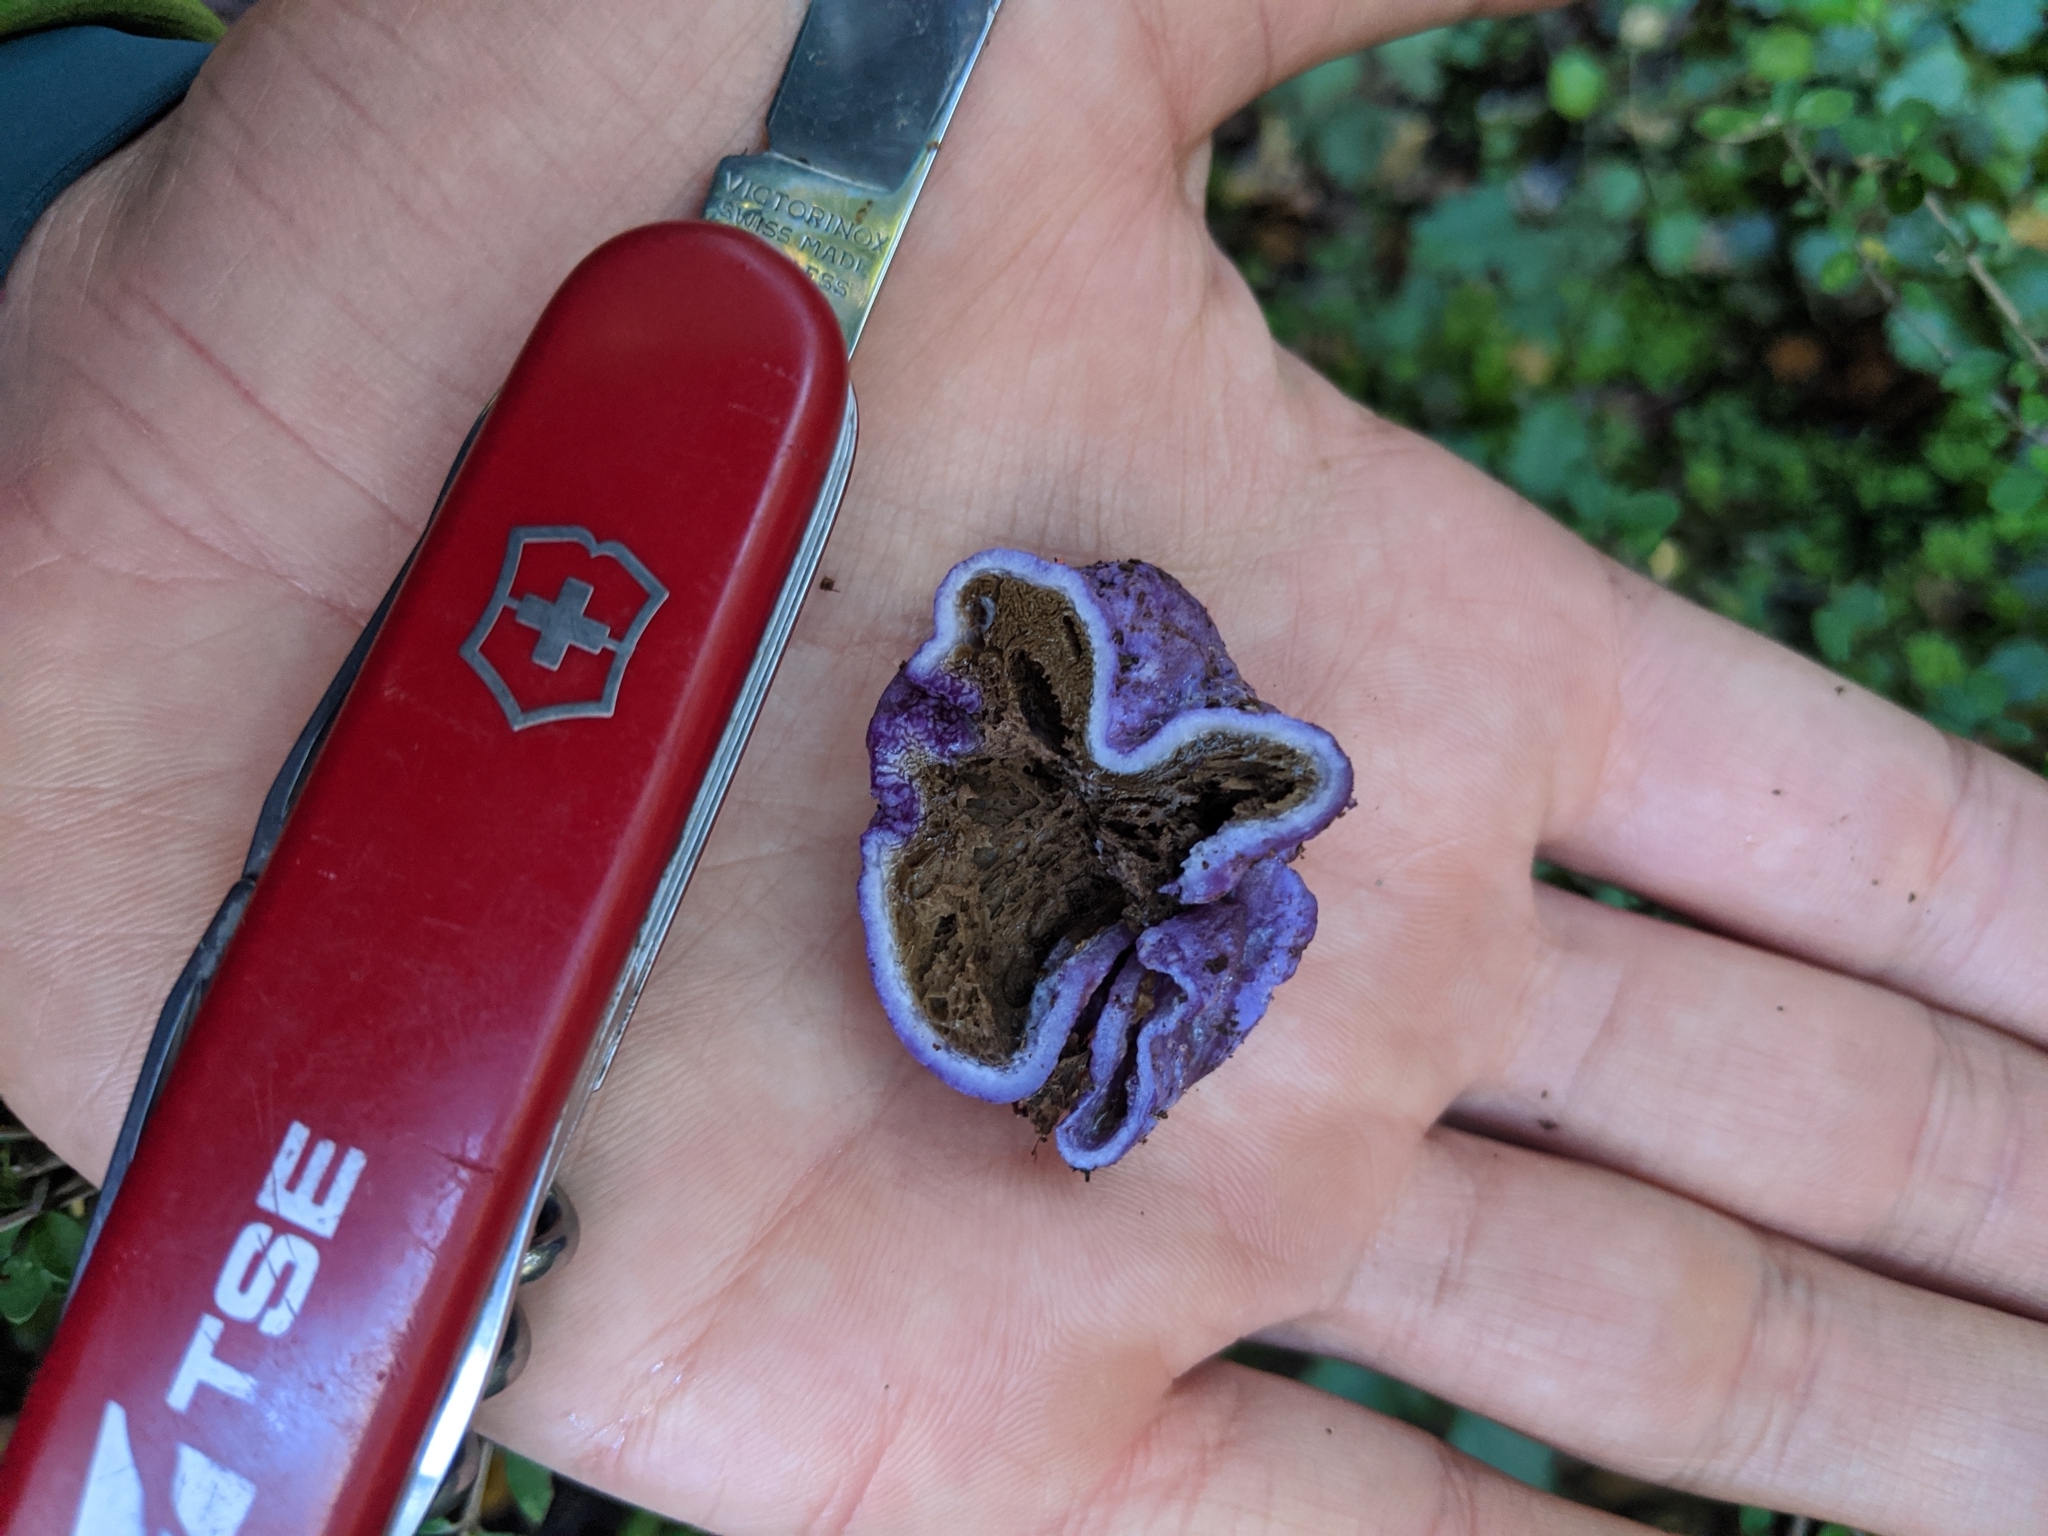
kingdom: Fungi
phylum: Basidiomycota
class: Agaricomycetes
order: Hysterangiales
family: Gallaceaceae
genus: Gallacea
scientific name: Gallacea scleroderma
